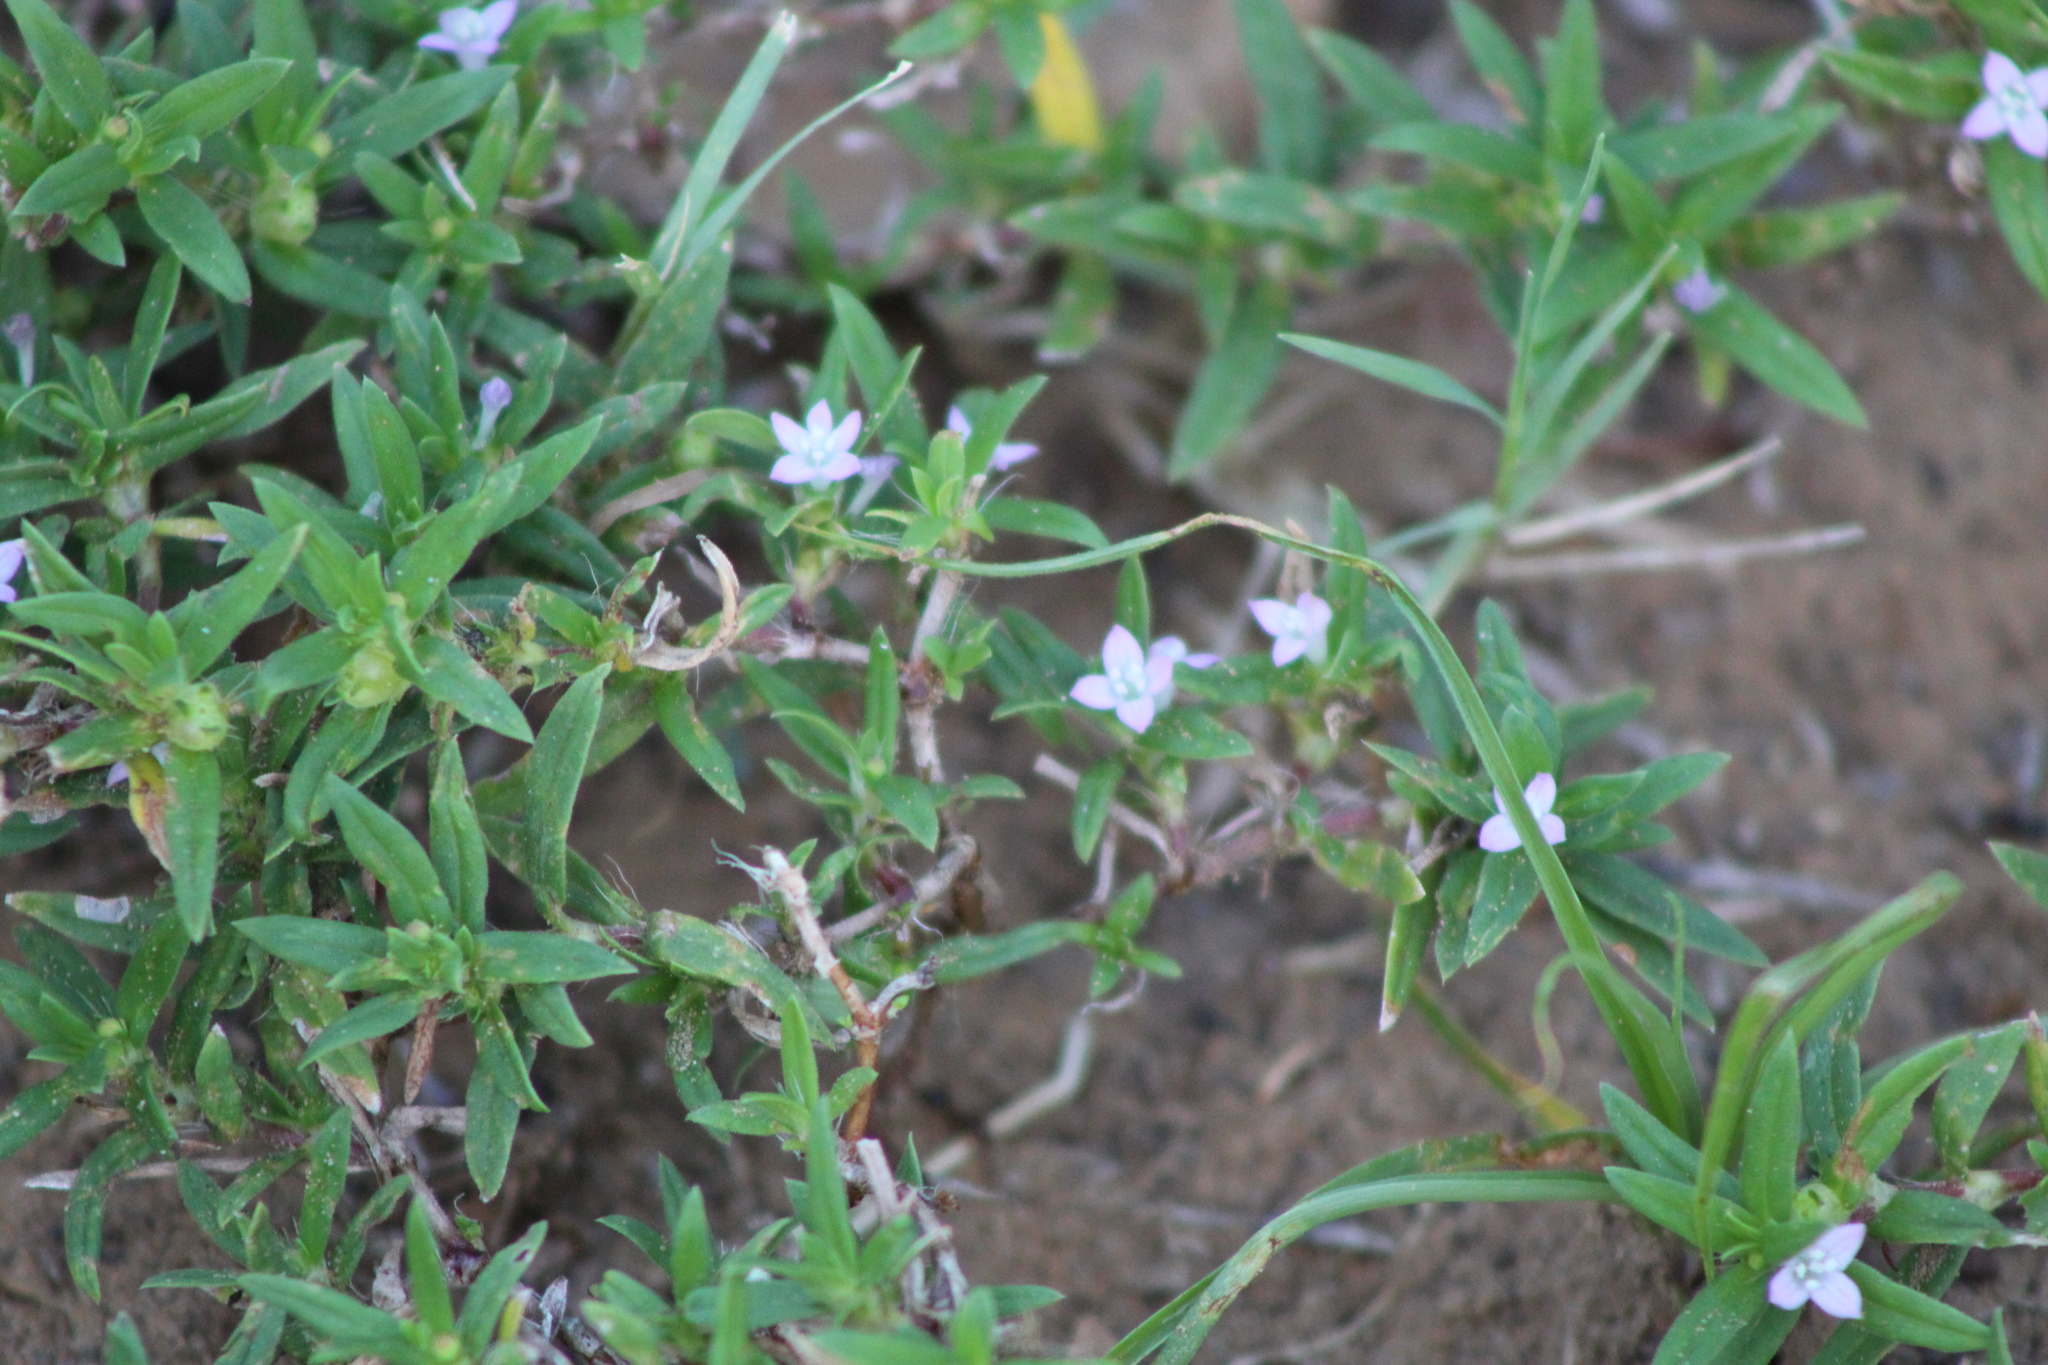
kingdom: Plantae
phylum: Tracheophyta
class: Magnoliopsida
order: Gentianales
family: Rubiaceae
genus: Hexasepalum
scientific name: Hexasepalum teres
